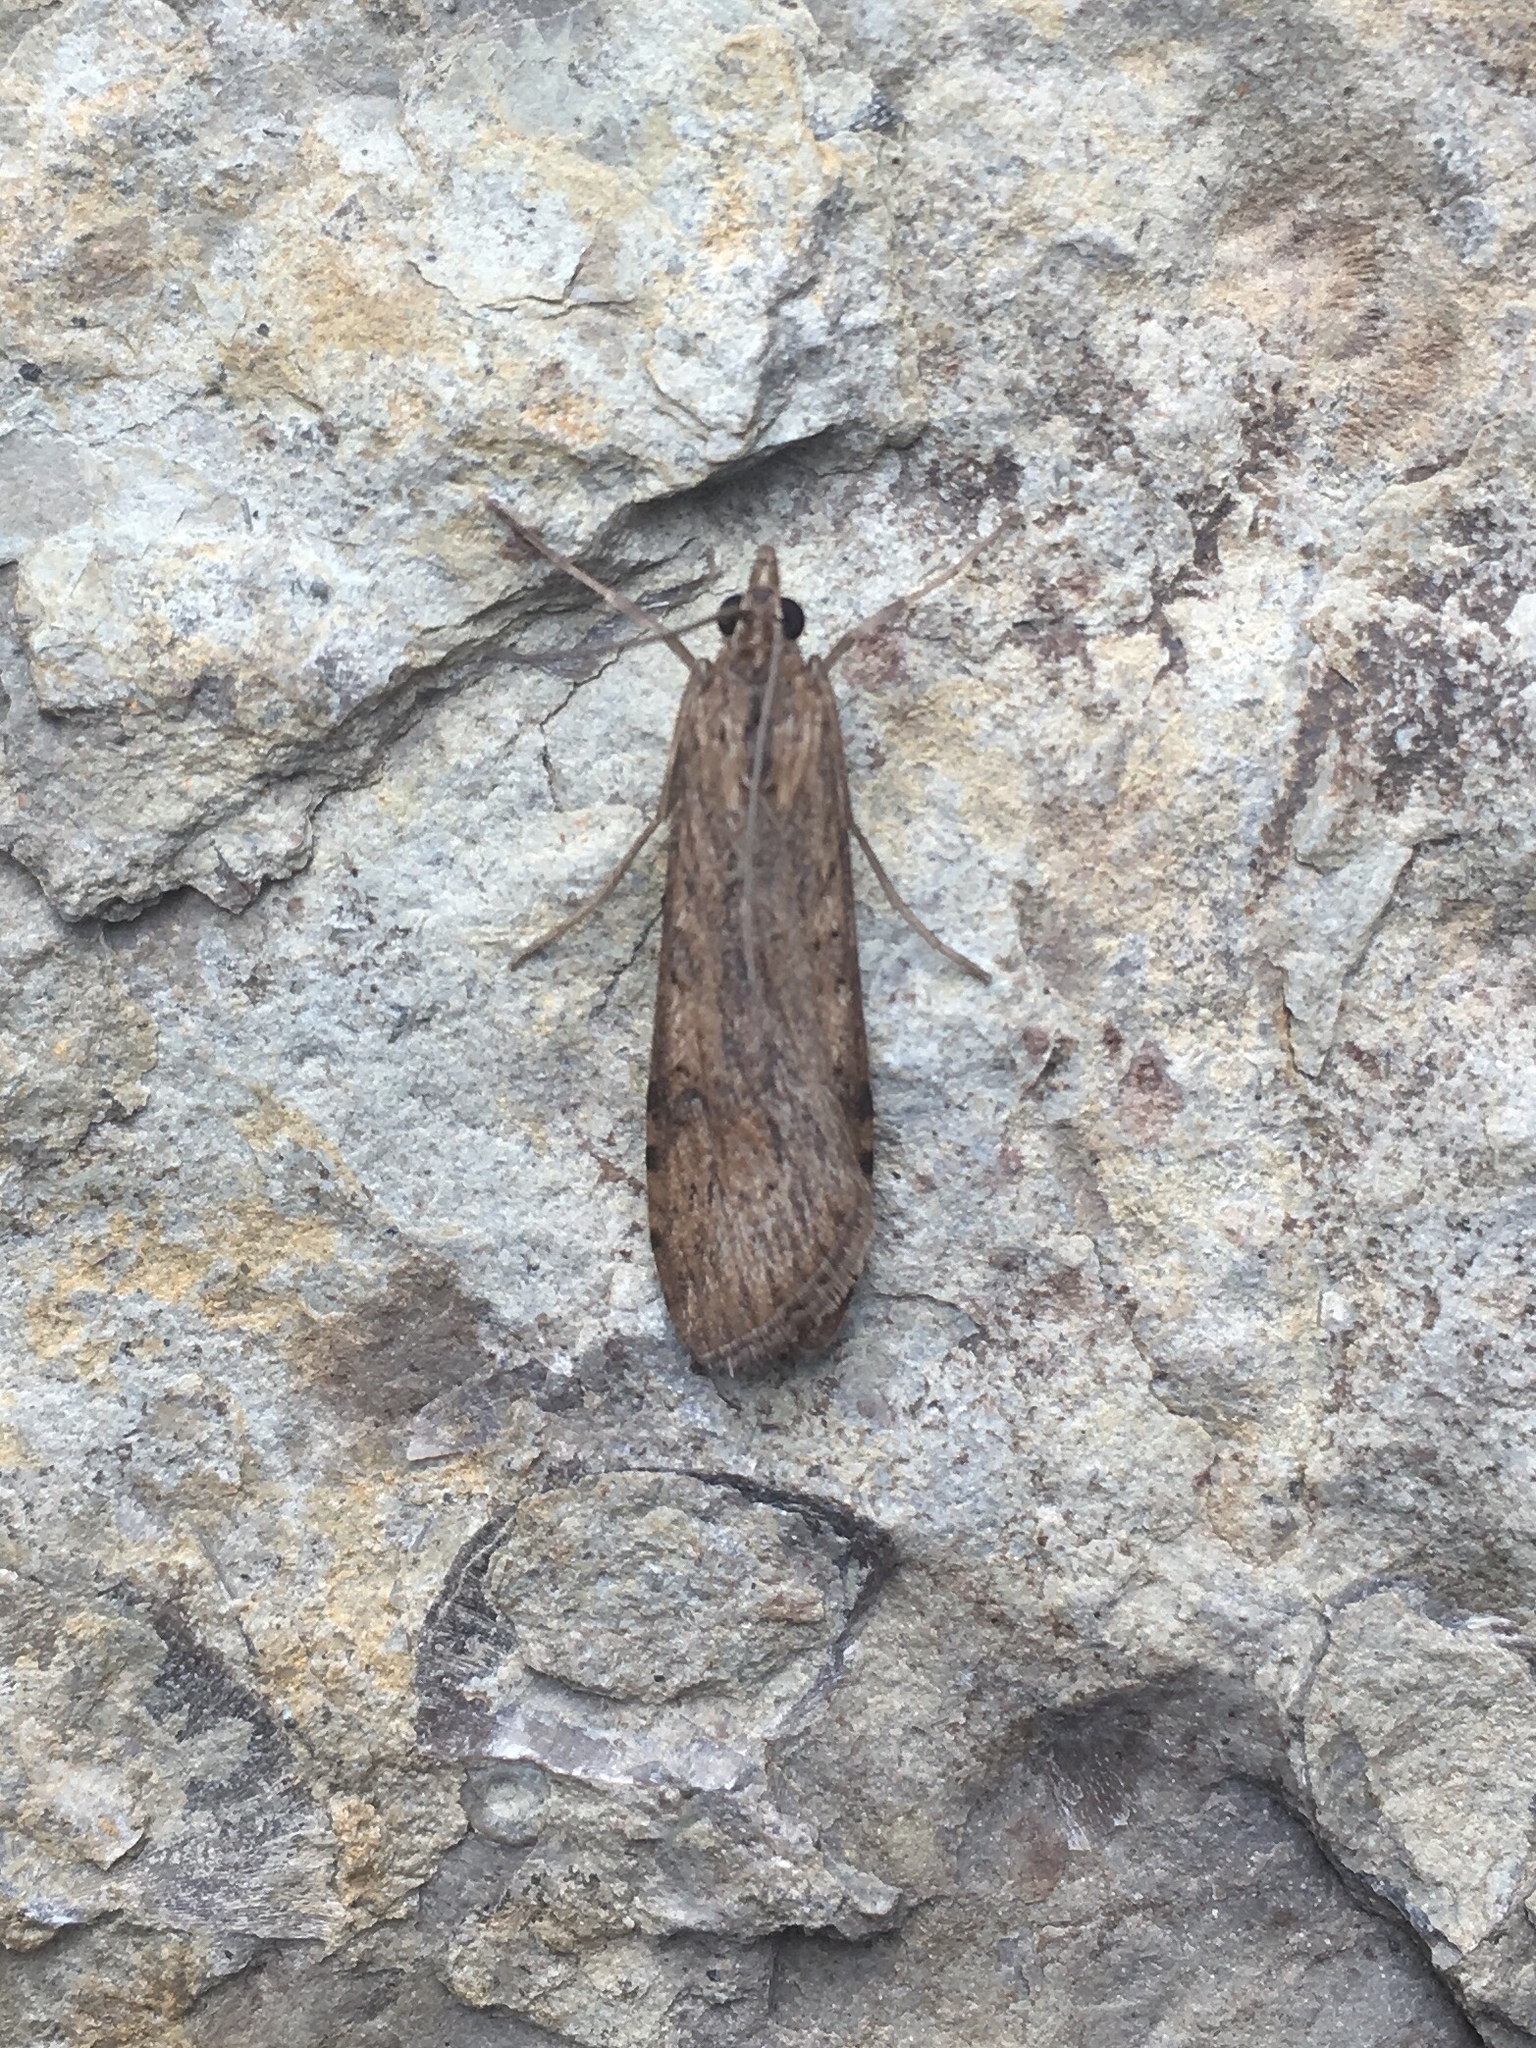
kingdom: Animalia
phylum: Arthropoda
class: Insecta
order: Lepidoptera
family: Crambidae
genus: Nomophila
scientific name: Nomophila nearctica
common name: American rush veneer
